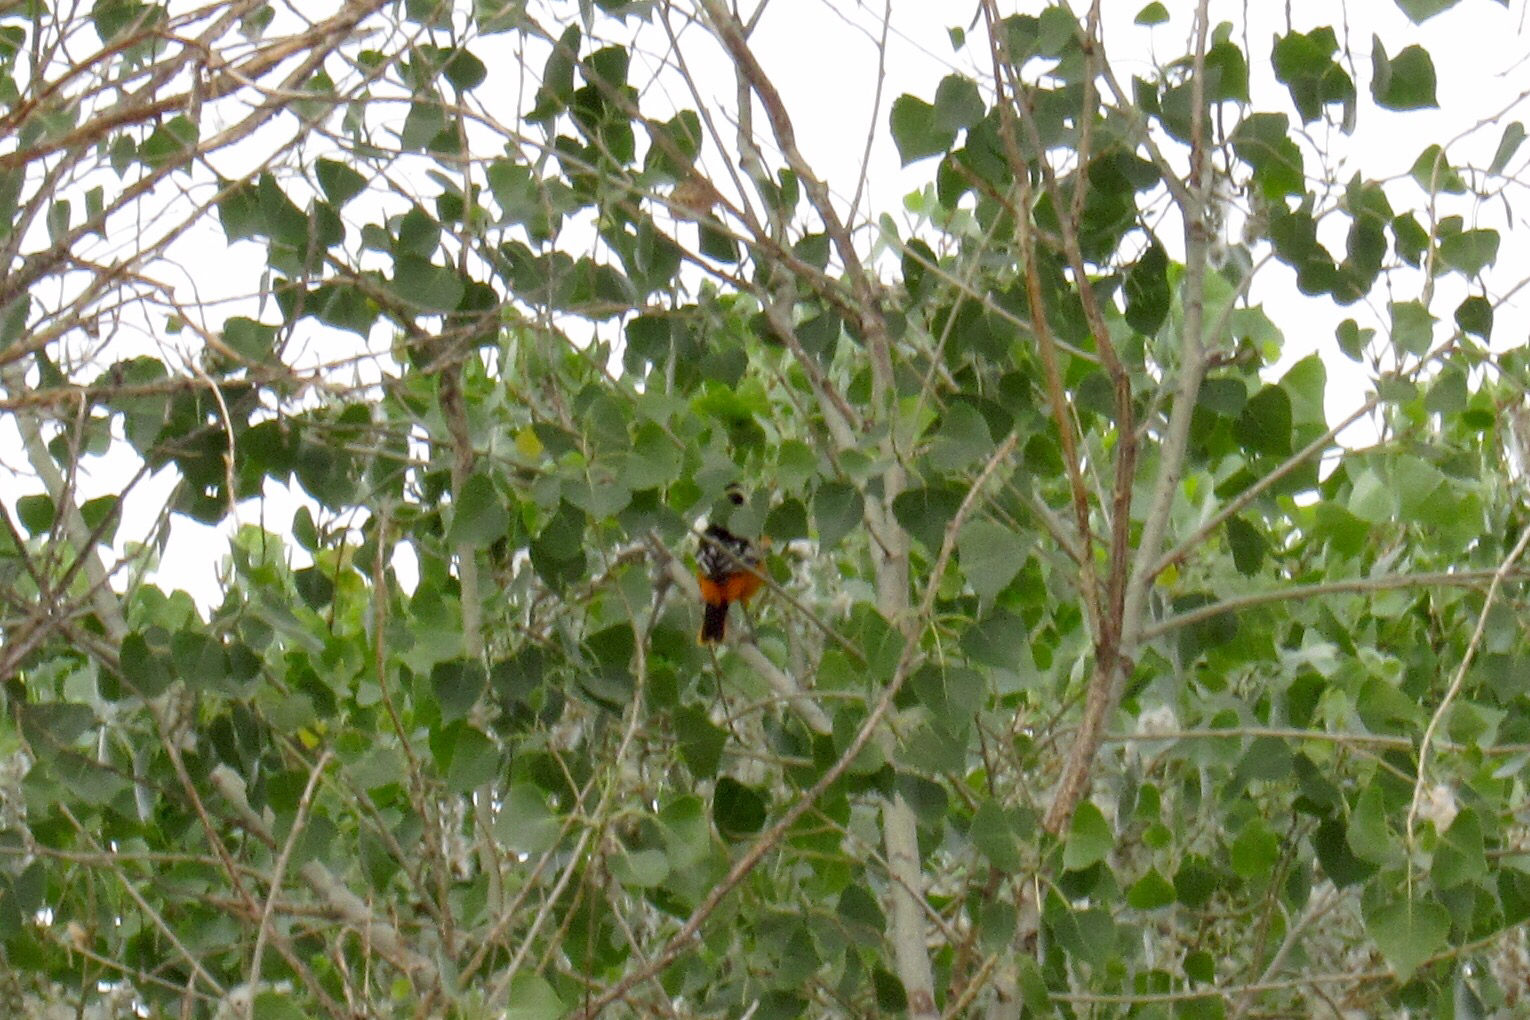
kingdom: Animalia
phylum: Chordata
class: Aves
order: Passeriformes
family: Icteridae
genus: Icterus
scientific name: Icterus galbula
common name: Baltimore oriole
